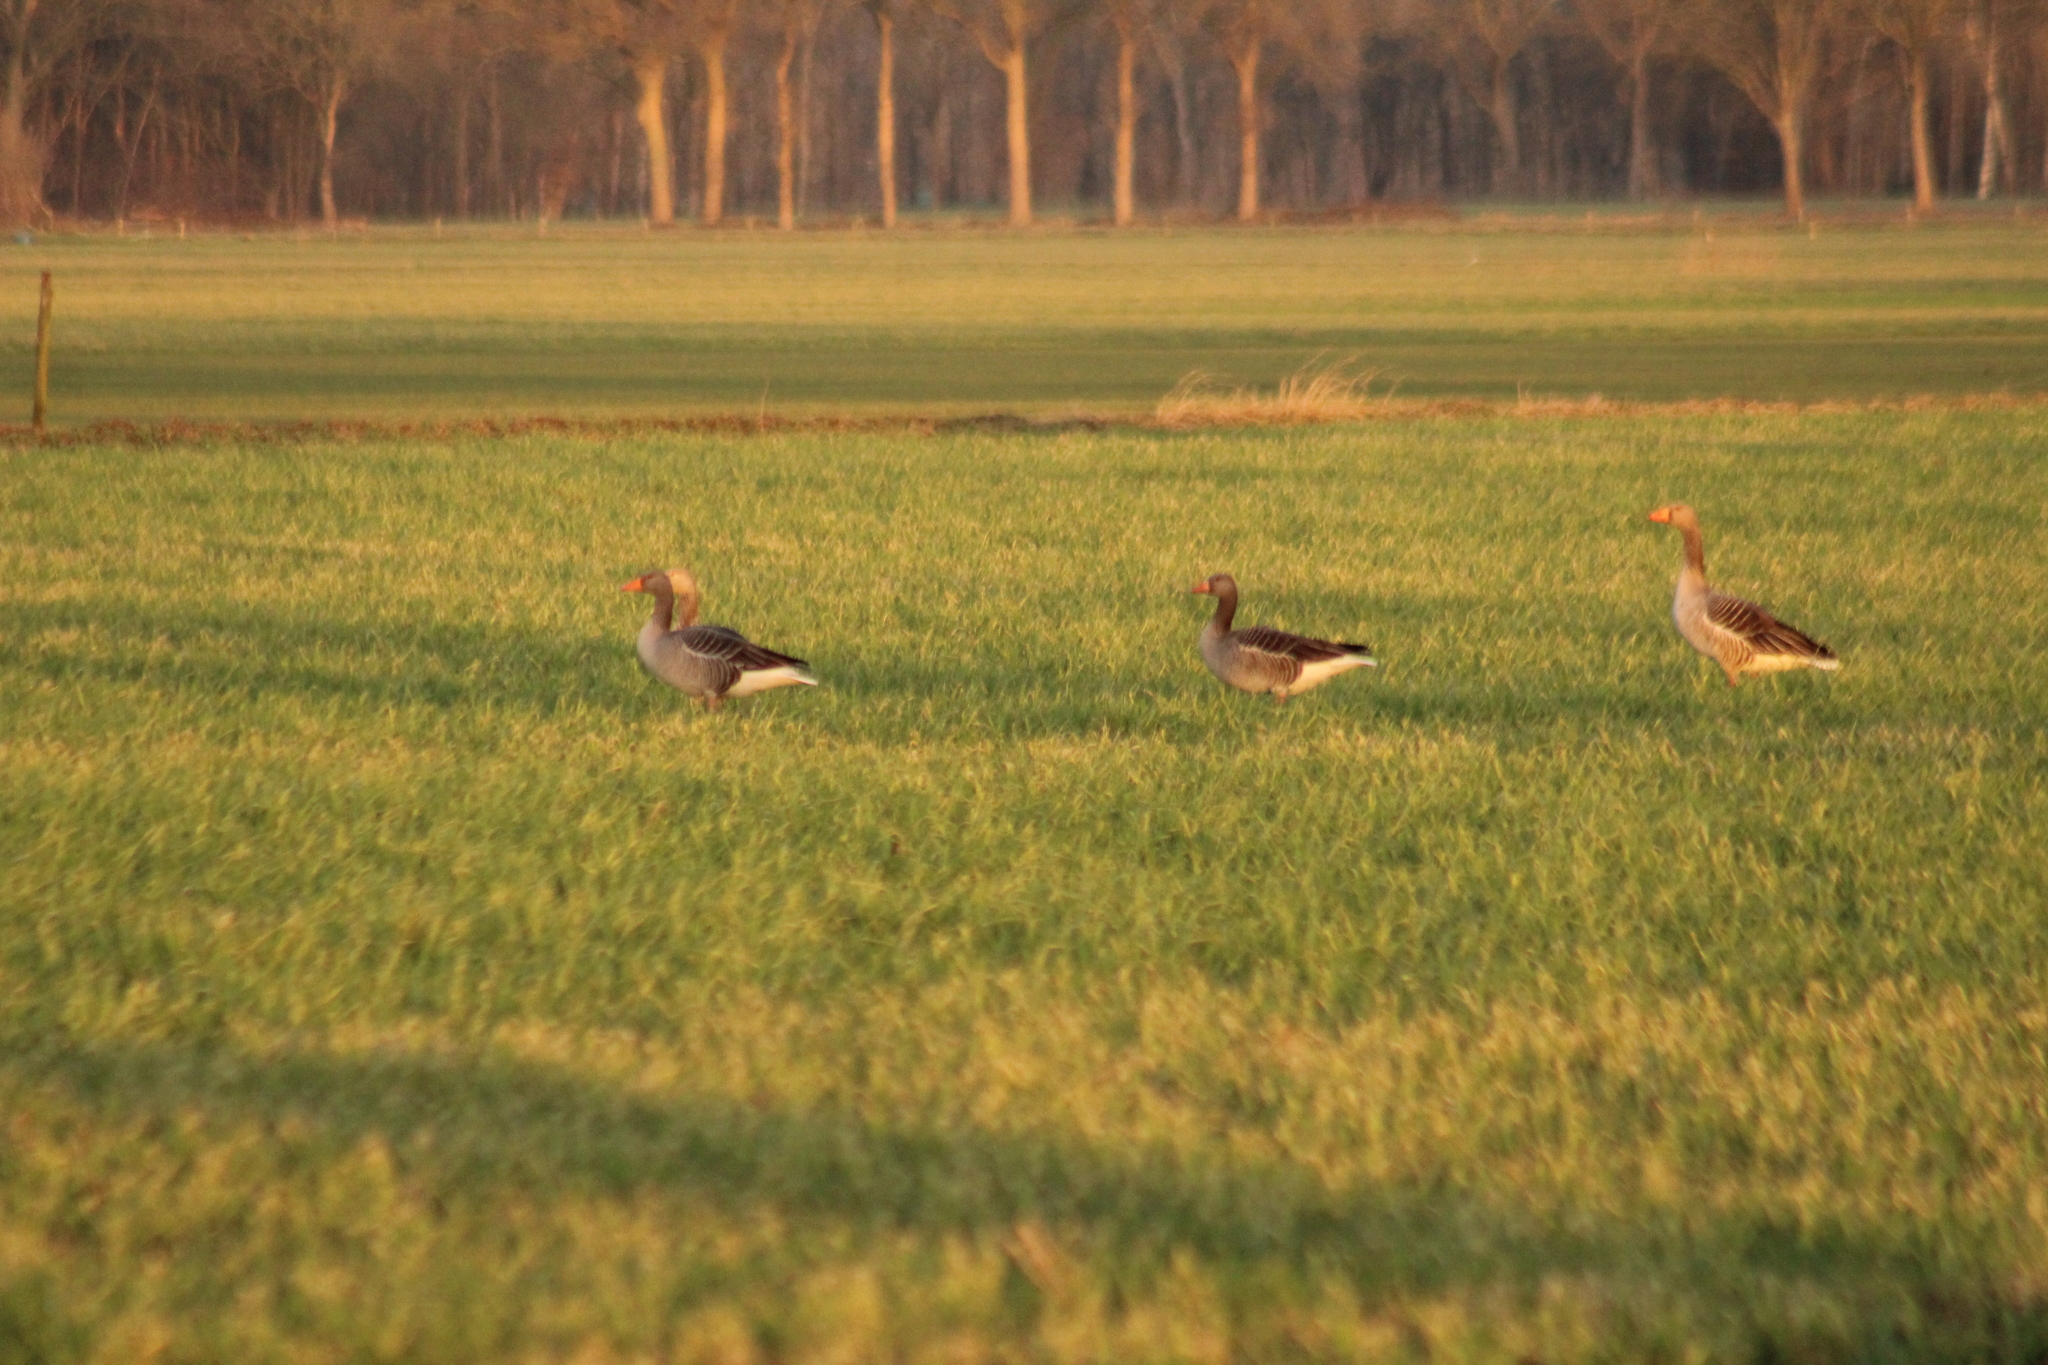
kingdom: Animalia
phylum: Chordata
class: Aves
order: Anseriformes
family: Anatidae
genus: Anser
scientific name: Anser anser
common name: Greylag goose
